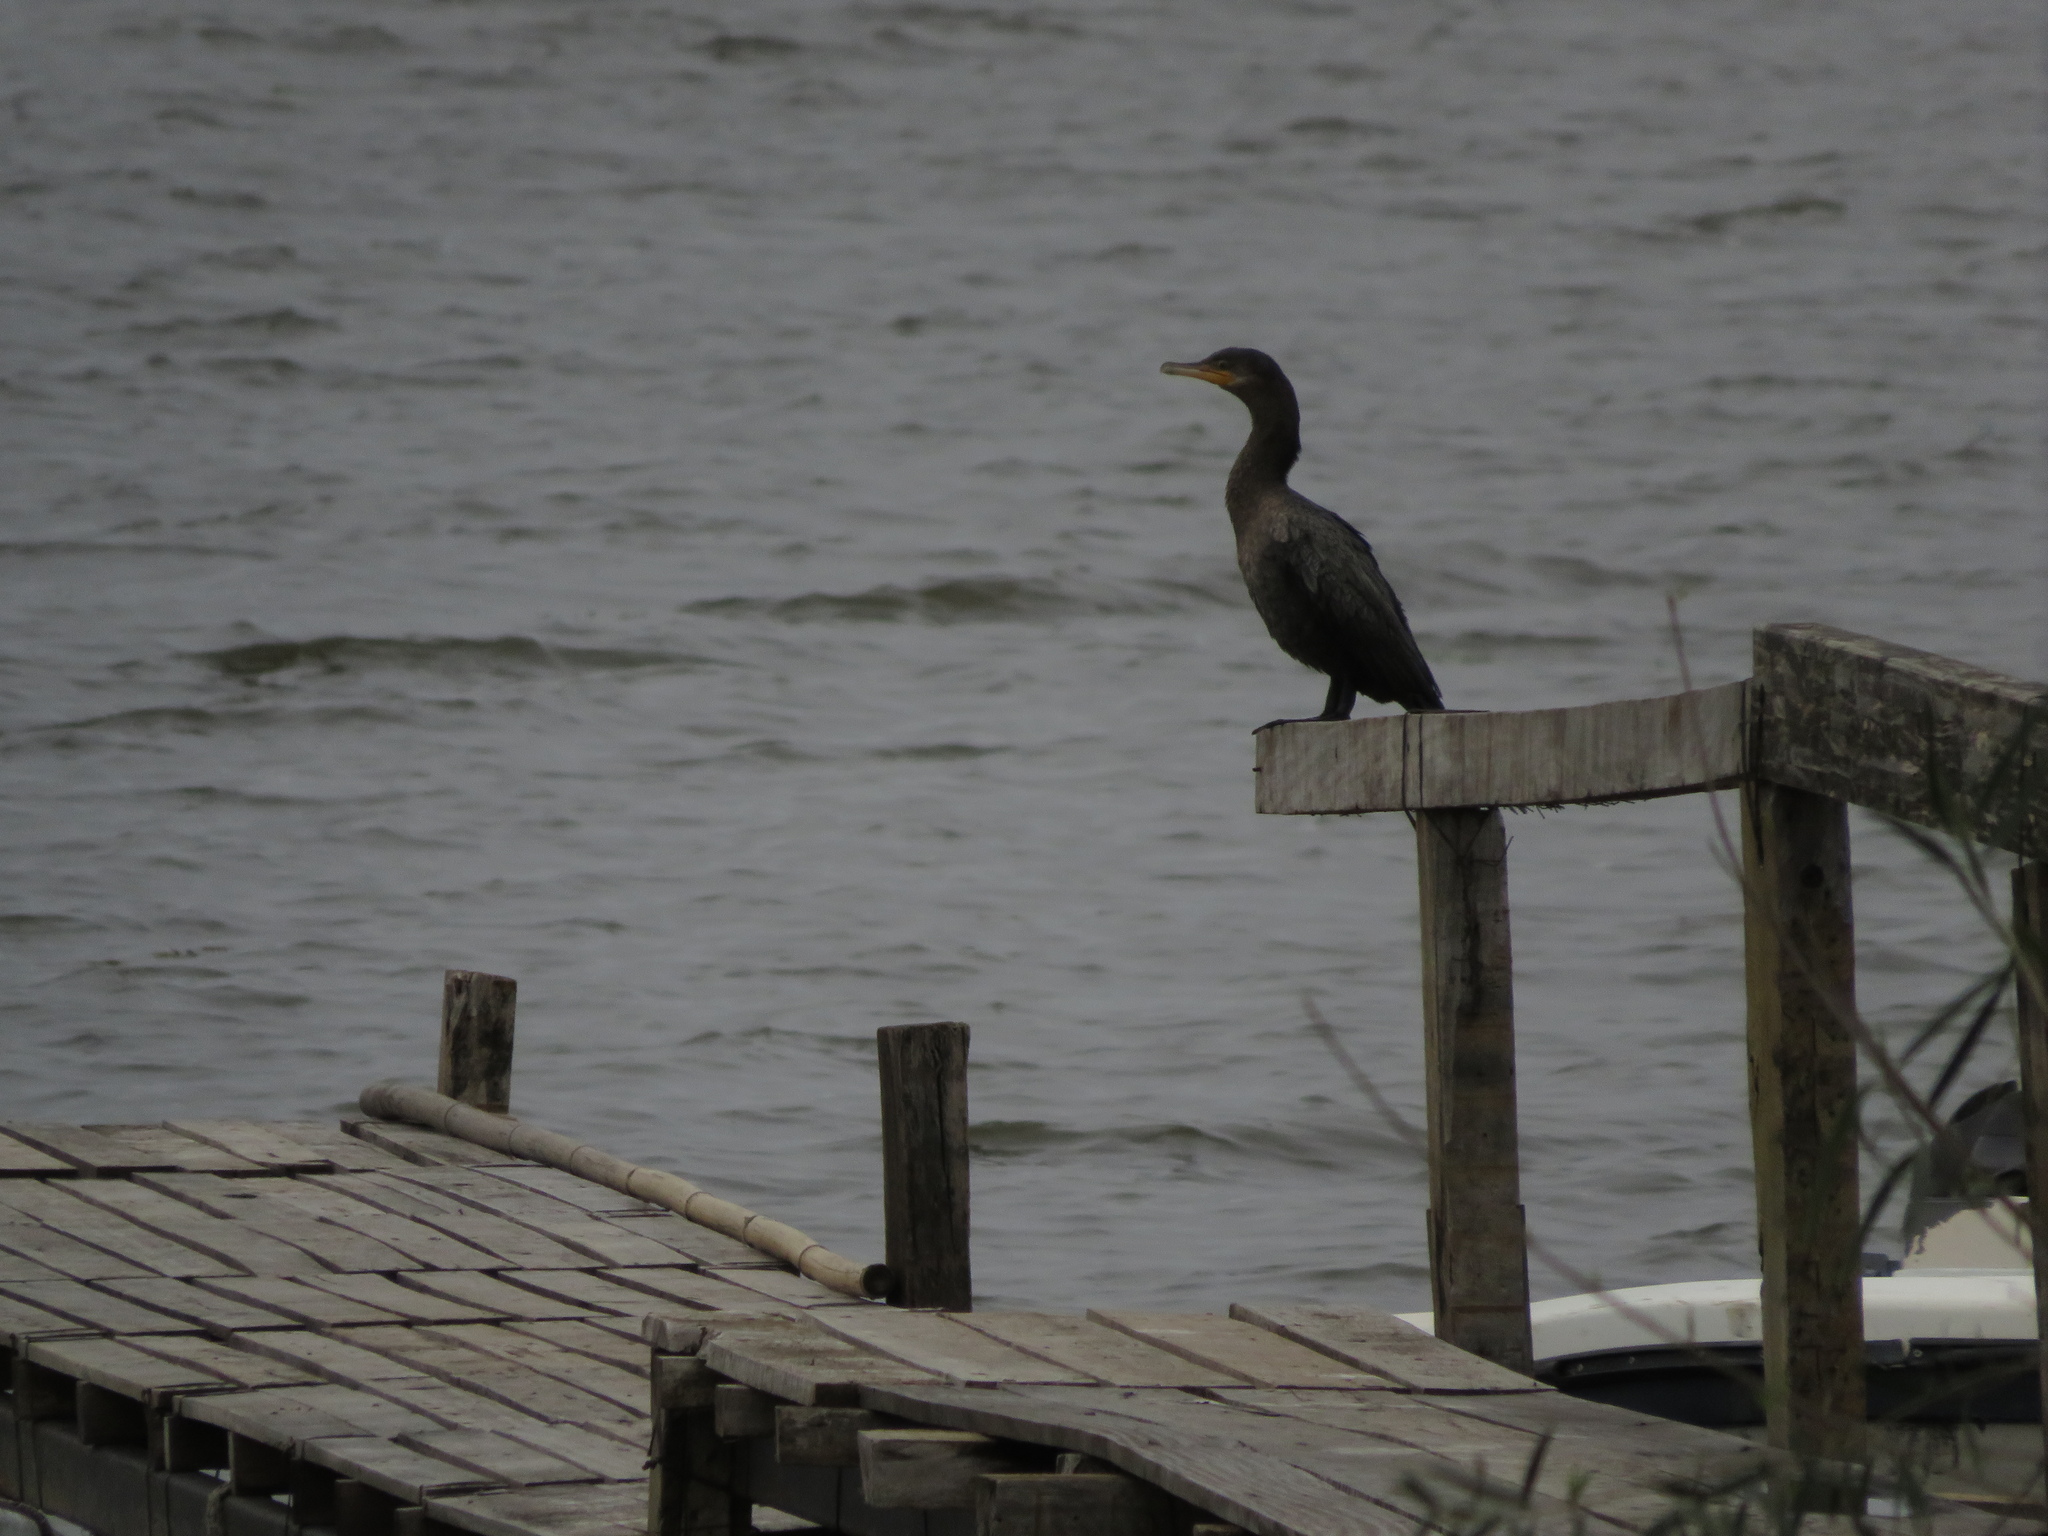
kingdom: Animalia
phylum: Chordata
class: Aves
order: Suliformes
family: Phalacrocoracidae
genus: Phalacrocorax
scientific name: Phalacrocorax brasilianus
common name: Neotropic cormorant
